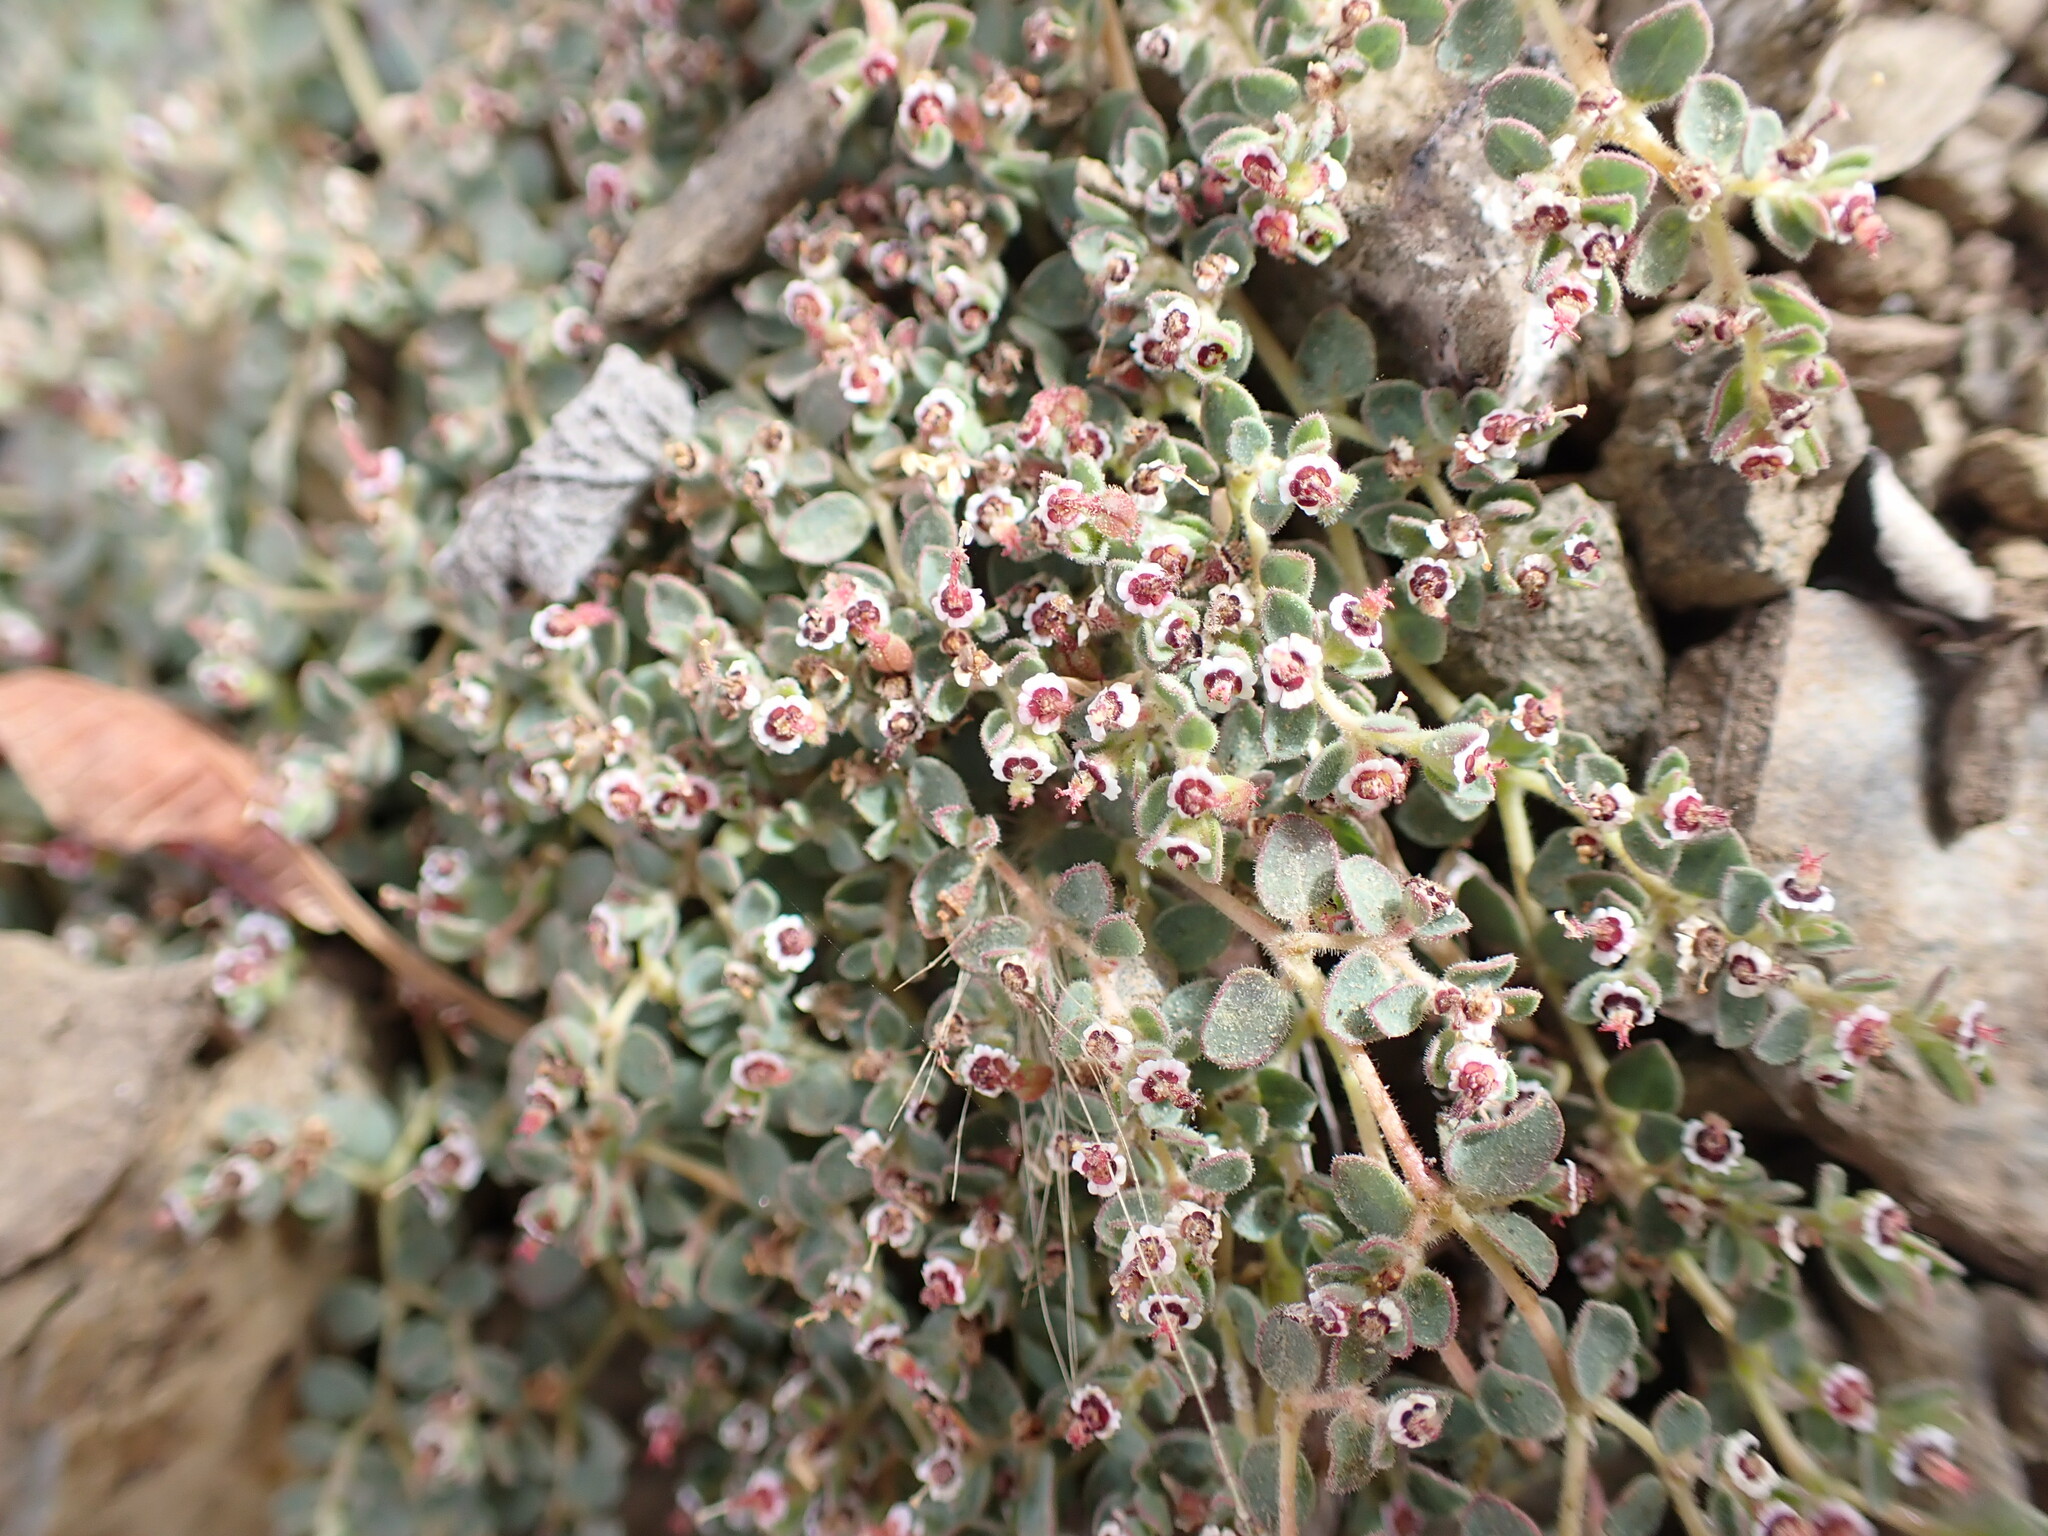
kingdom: Plantae
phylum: Tracheophyta
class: Magnoliopsida
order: Malpighiales
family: Euphorbiaceae
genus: Euphorbia
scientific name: Euphorbia polycarpa
